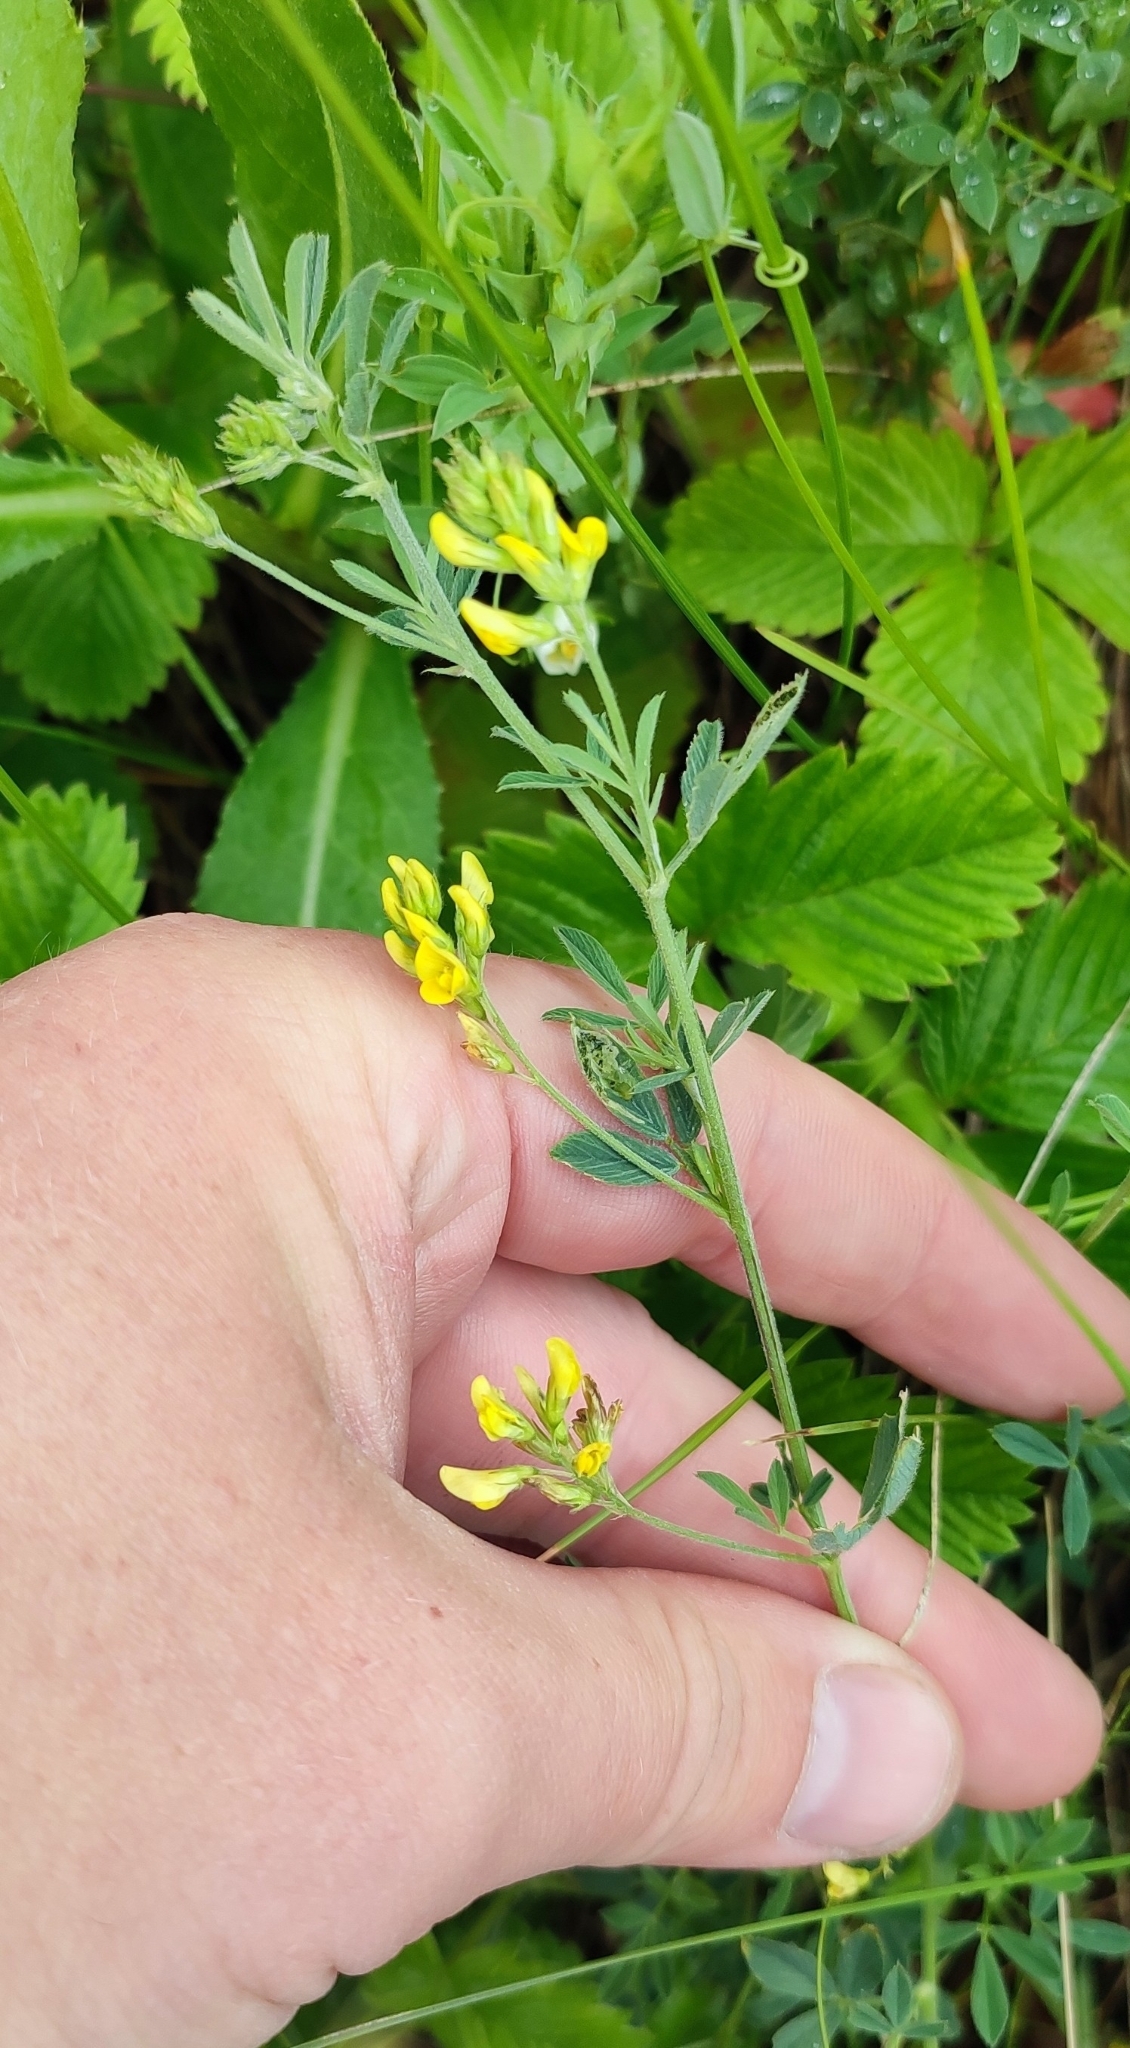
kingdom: Plantae
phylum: Tracheophyta
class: Magnoliopsida
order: Fabales
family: Fabaceae
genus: Medicago
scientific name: Medicago falcata
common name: Sickle medick
